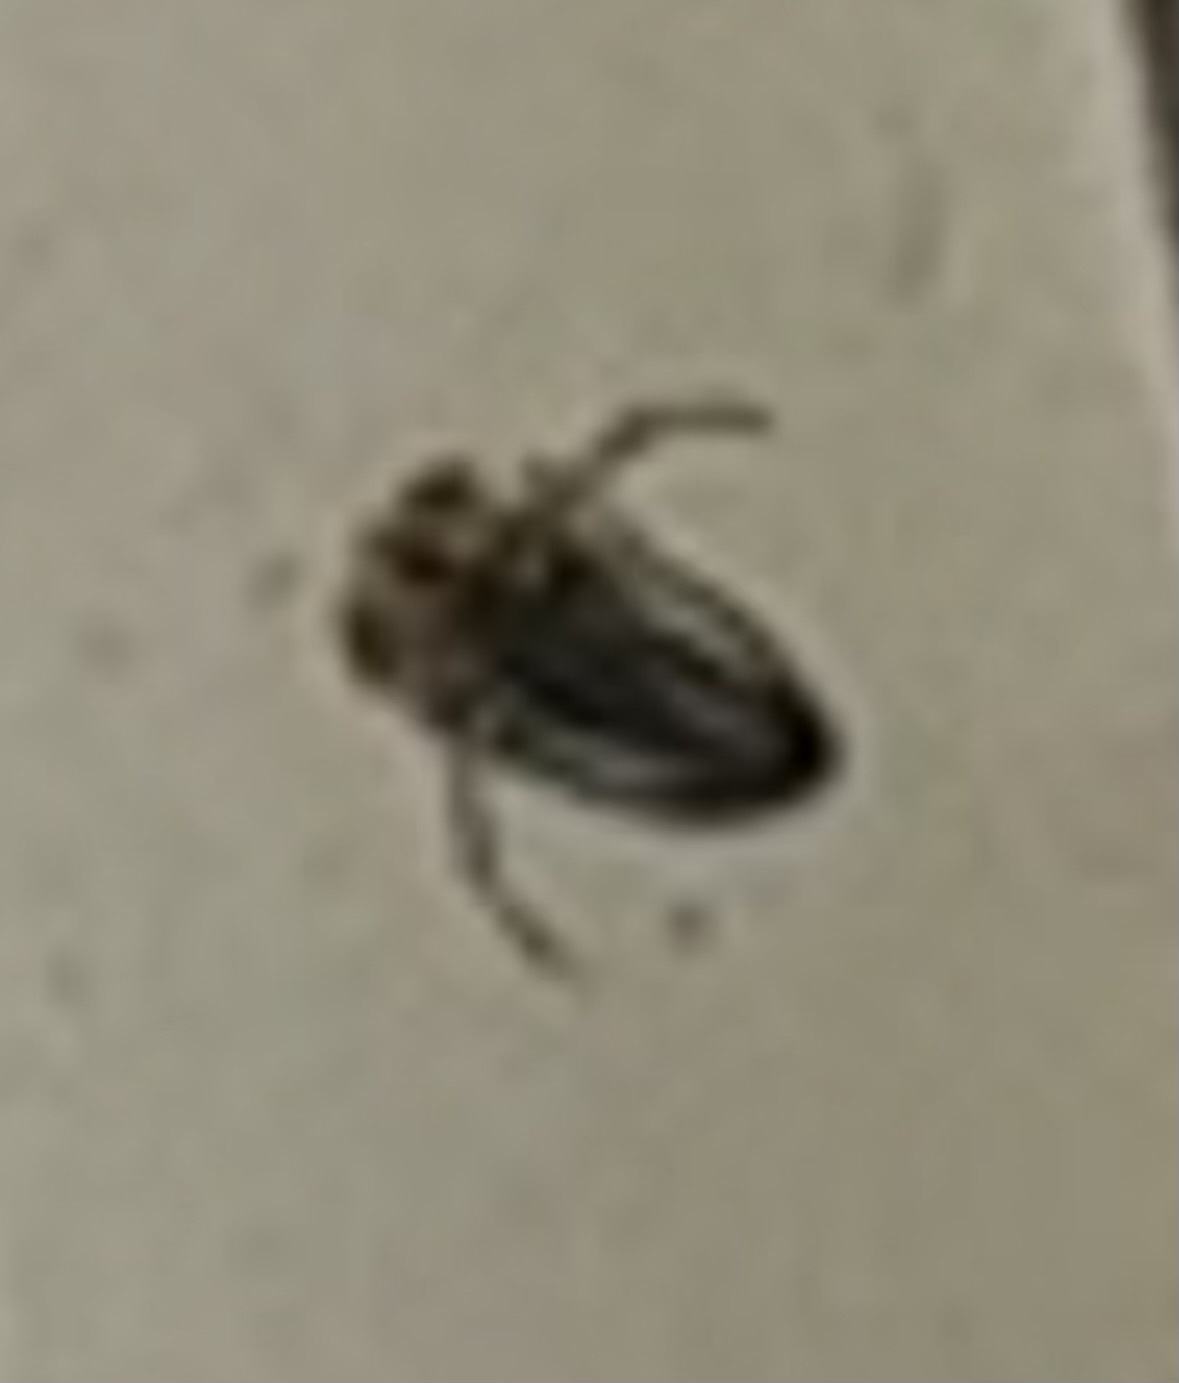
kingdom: Animalia
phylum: Arthropoda
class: Insecta
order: Hemiptera
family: Pleidae
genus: Plea
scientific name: Plea minutissima
